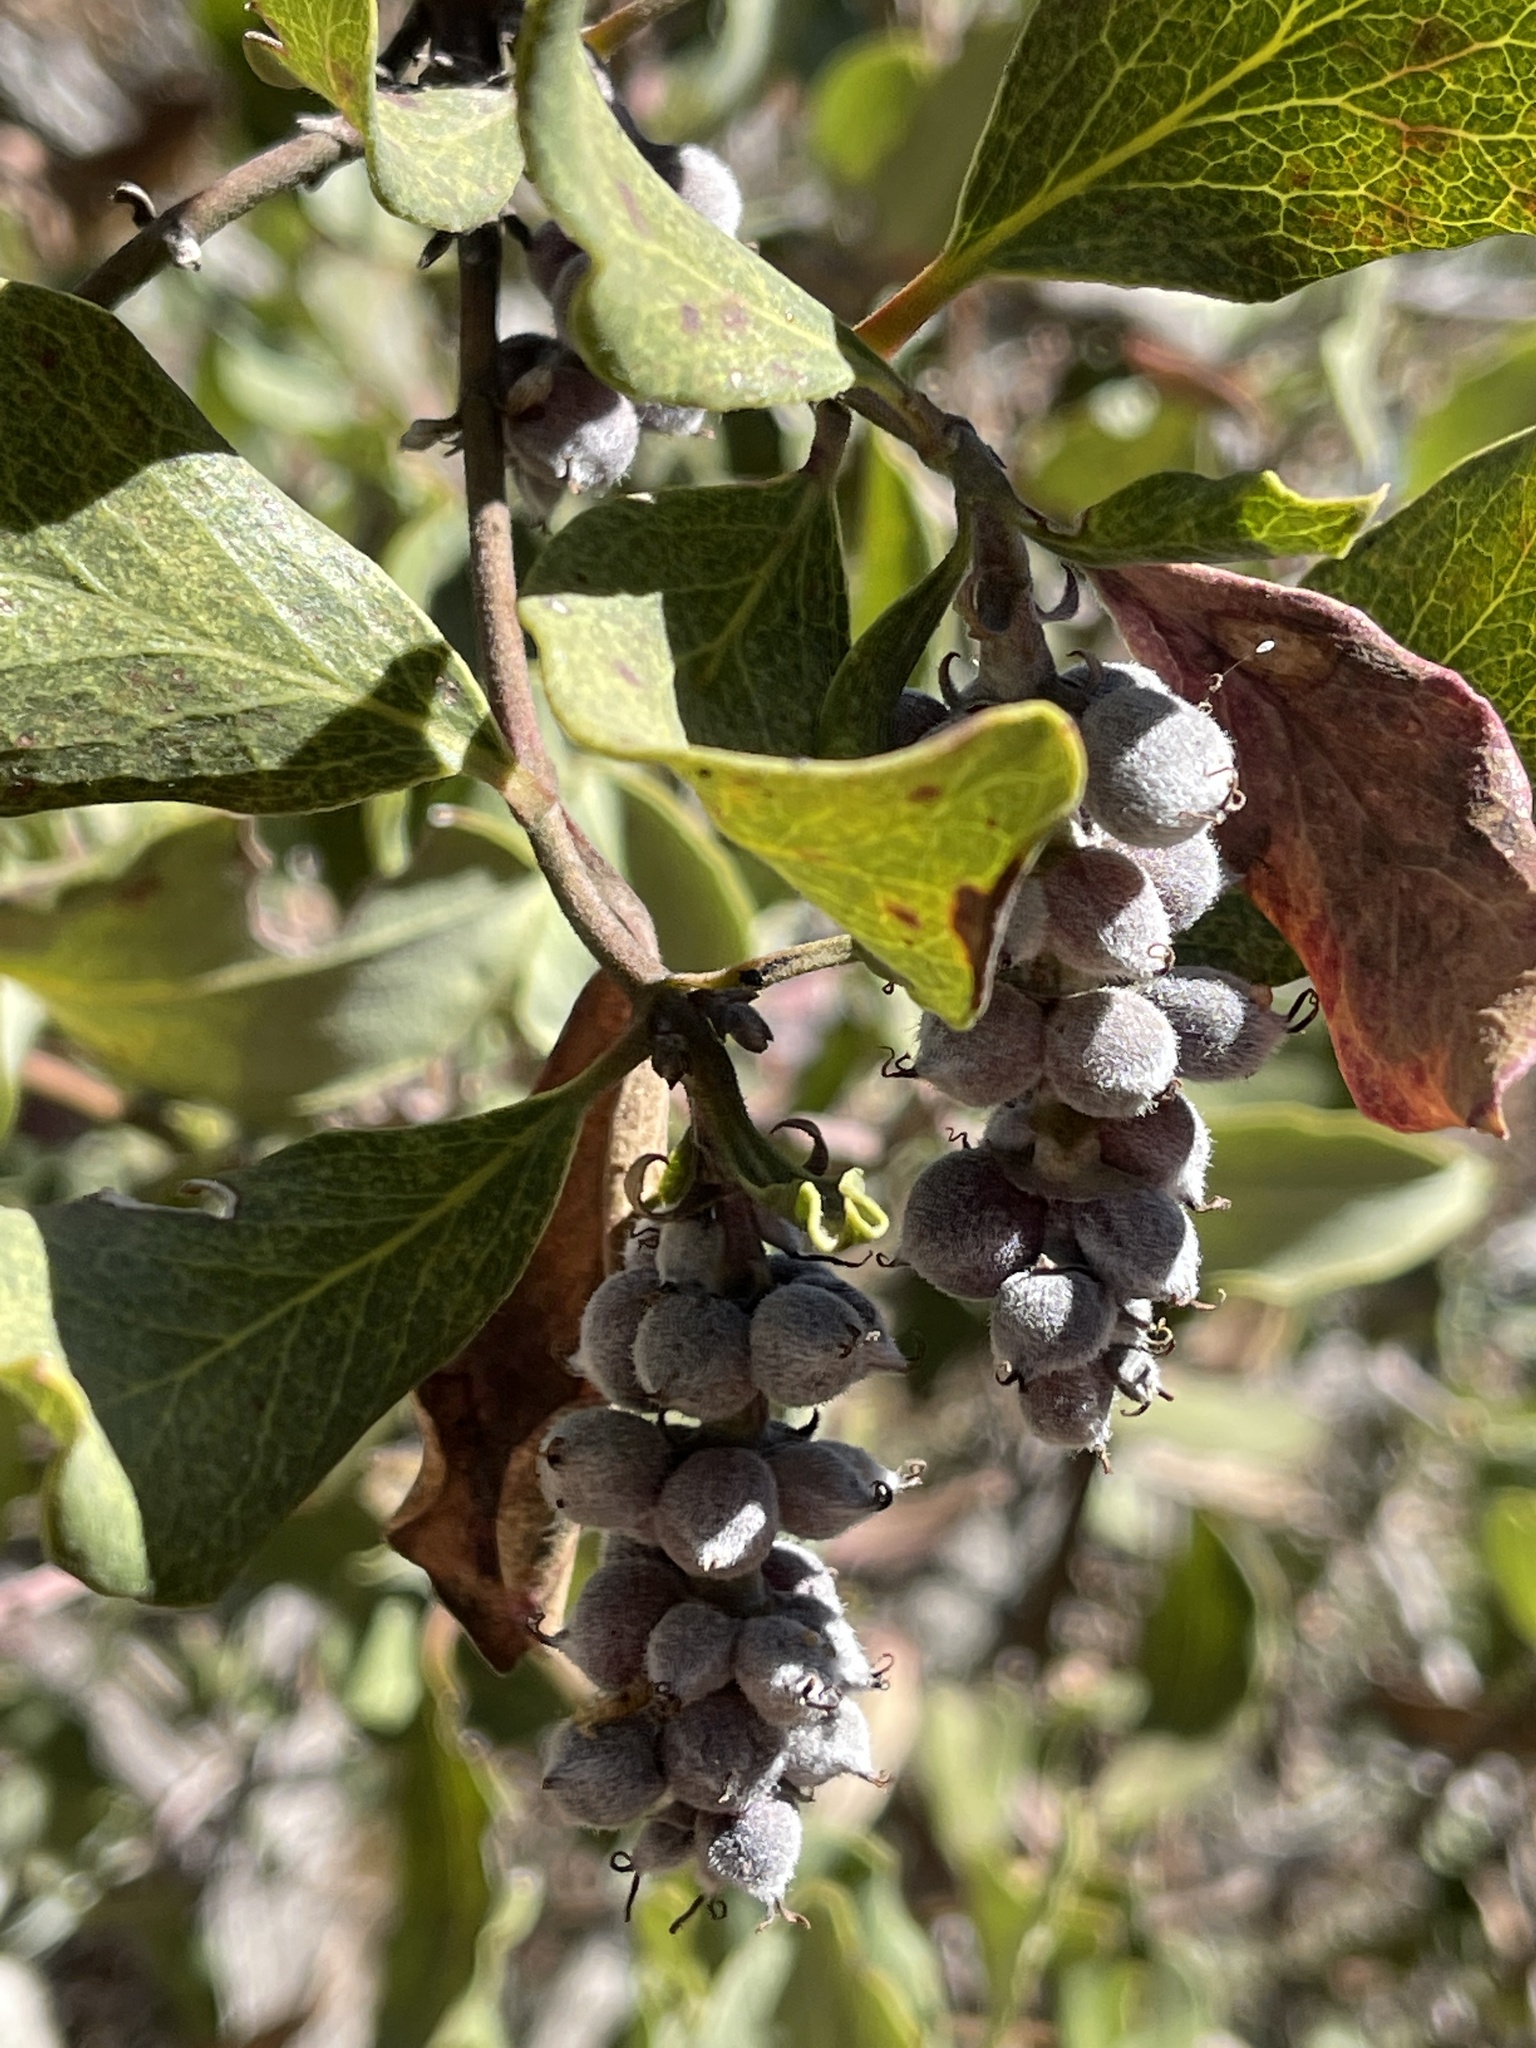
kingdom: Plantae
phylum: Tracheophyta
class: Magnoliopsida
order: Garryales
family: Garryaceae
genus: Garrya
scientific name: Garrya fremontii
